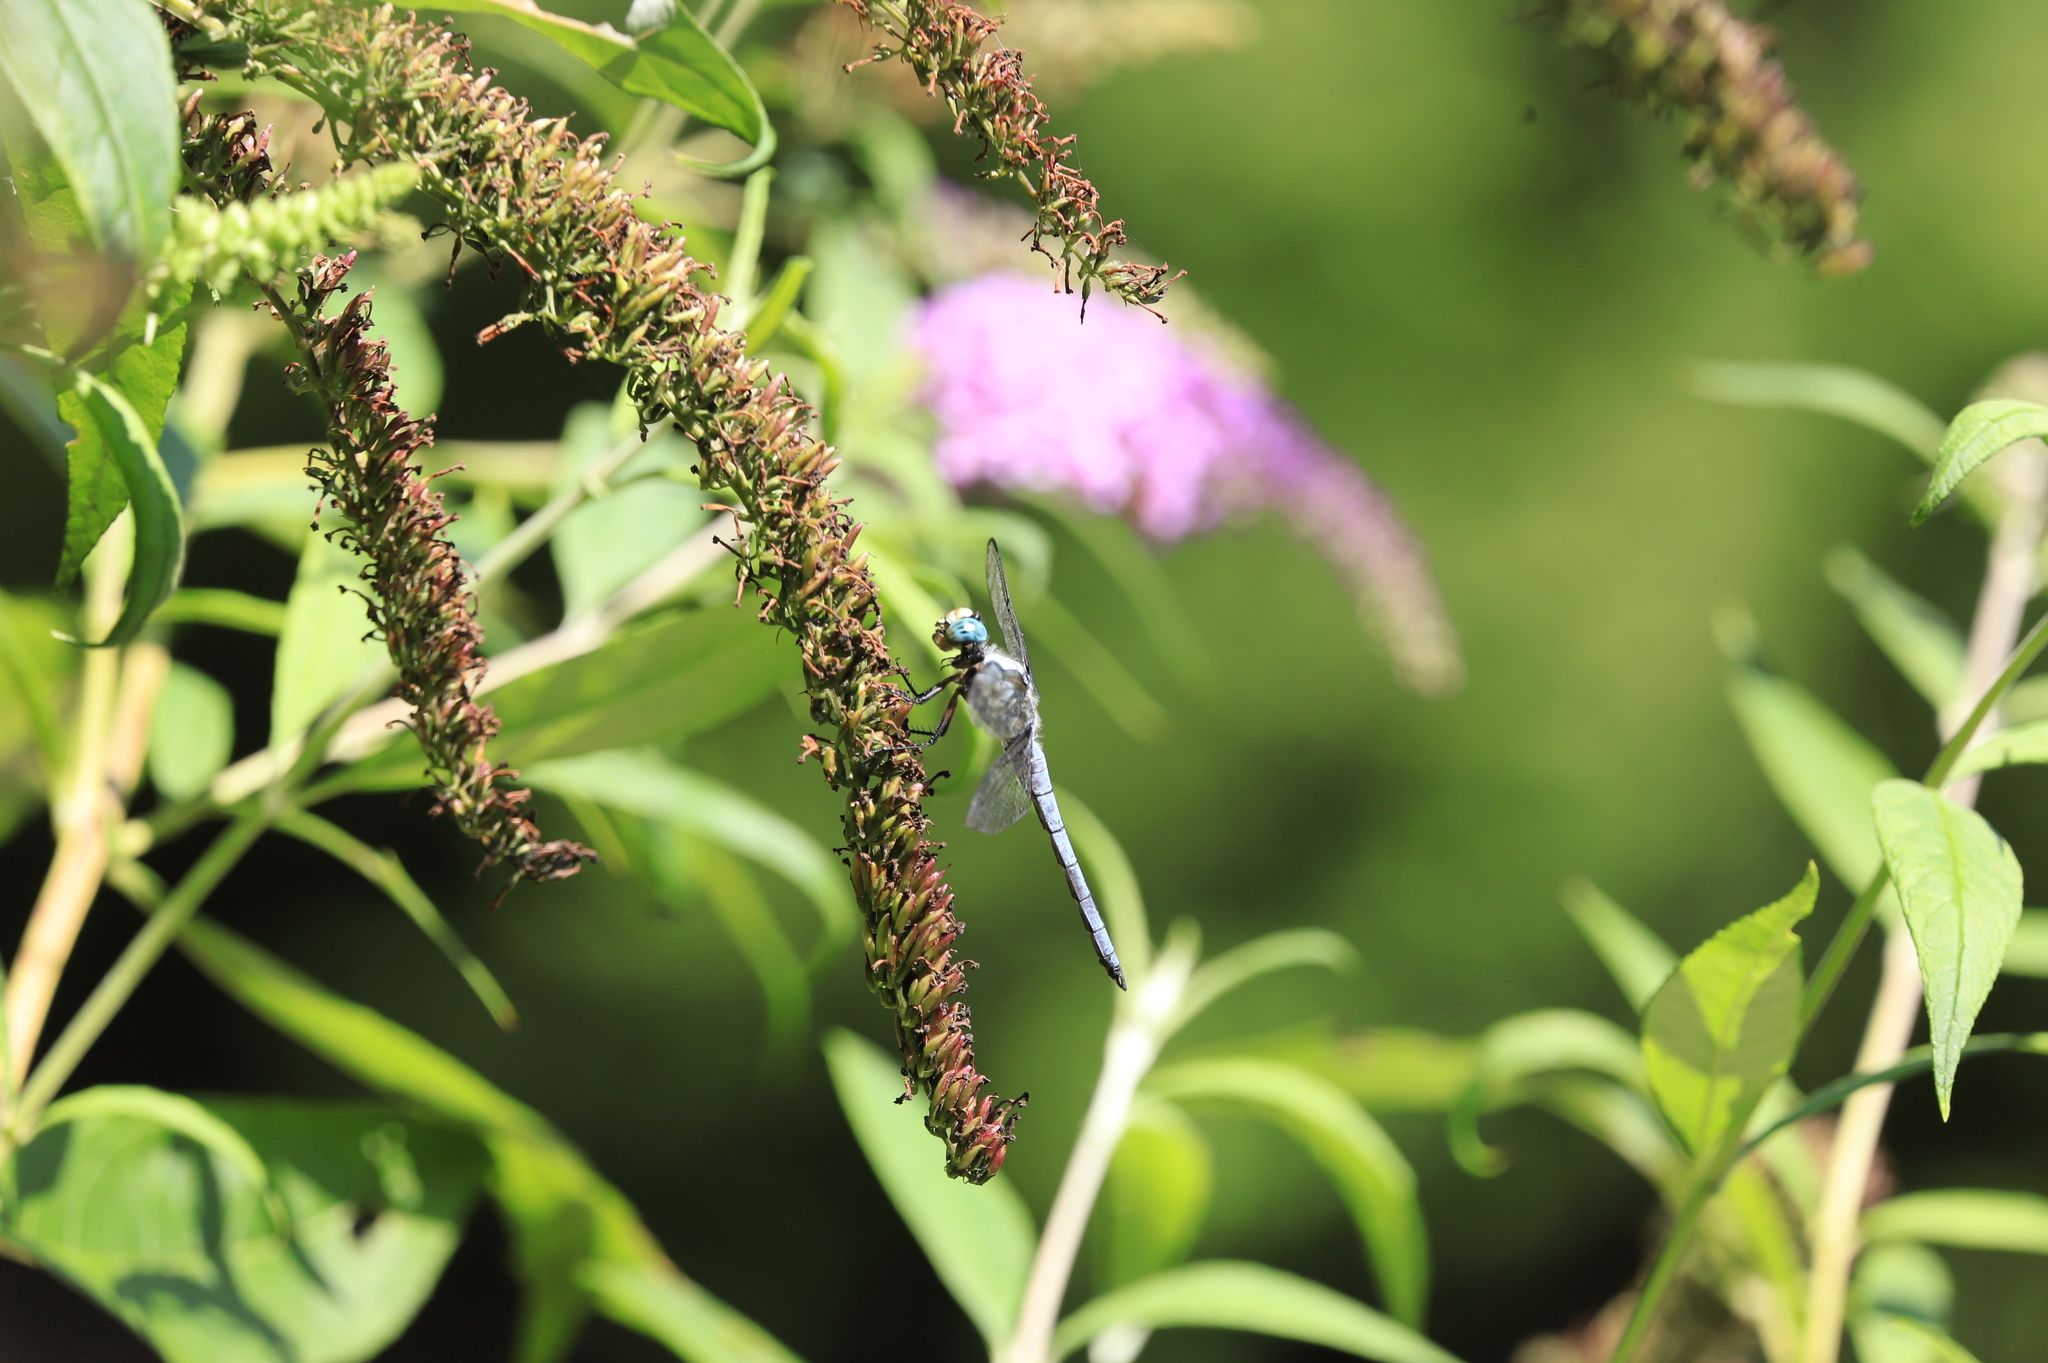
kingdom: Animalia
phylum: Arthropoda
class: Insecta
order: Odonata
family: Libellulidae
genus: Libellula
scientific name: Libellula vibrans
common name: Great blue skimmer
